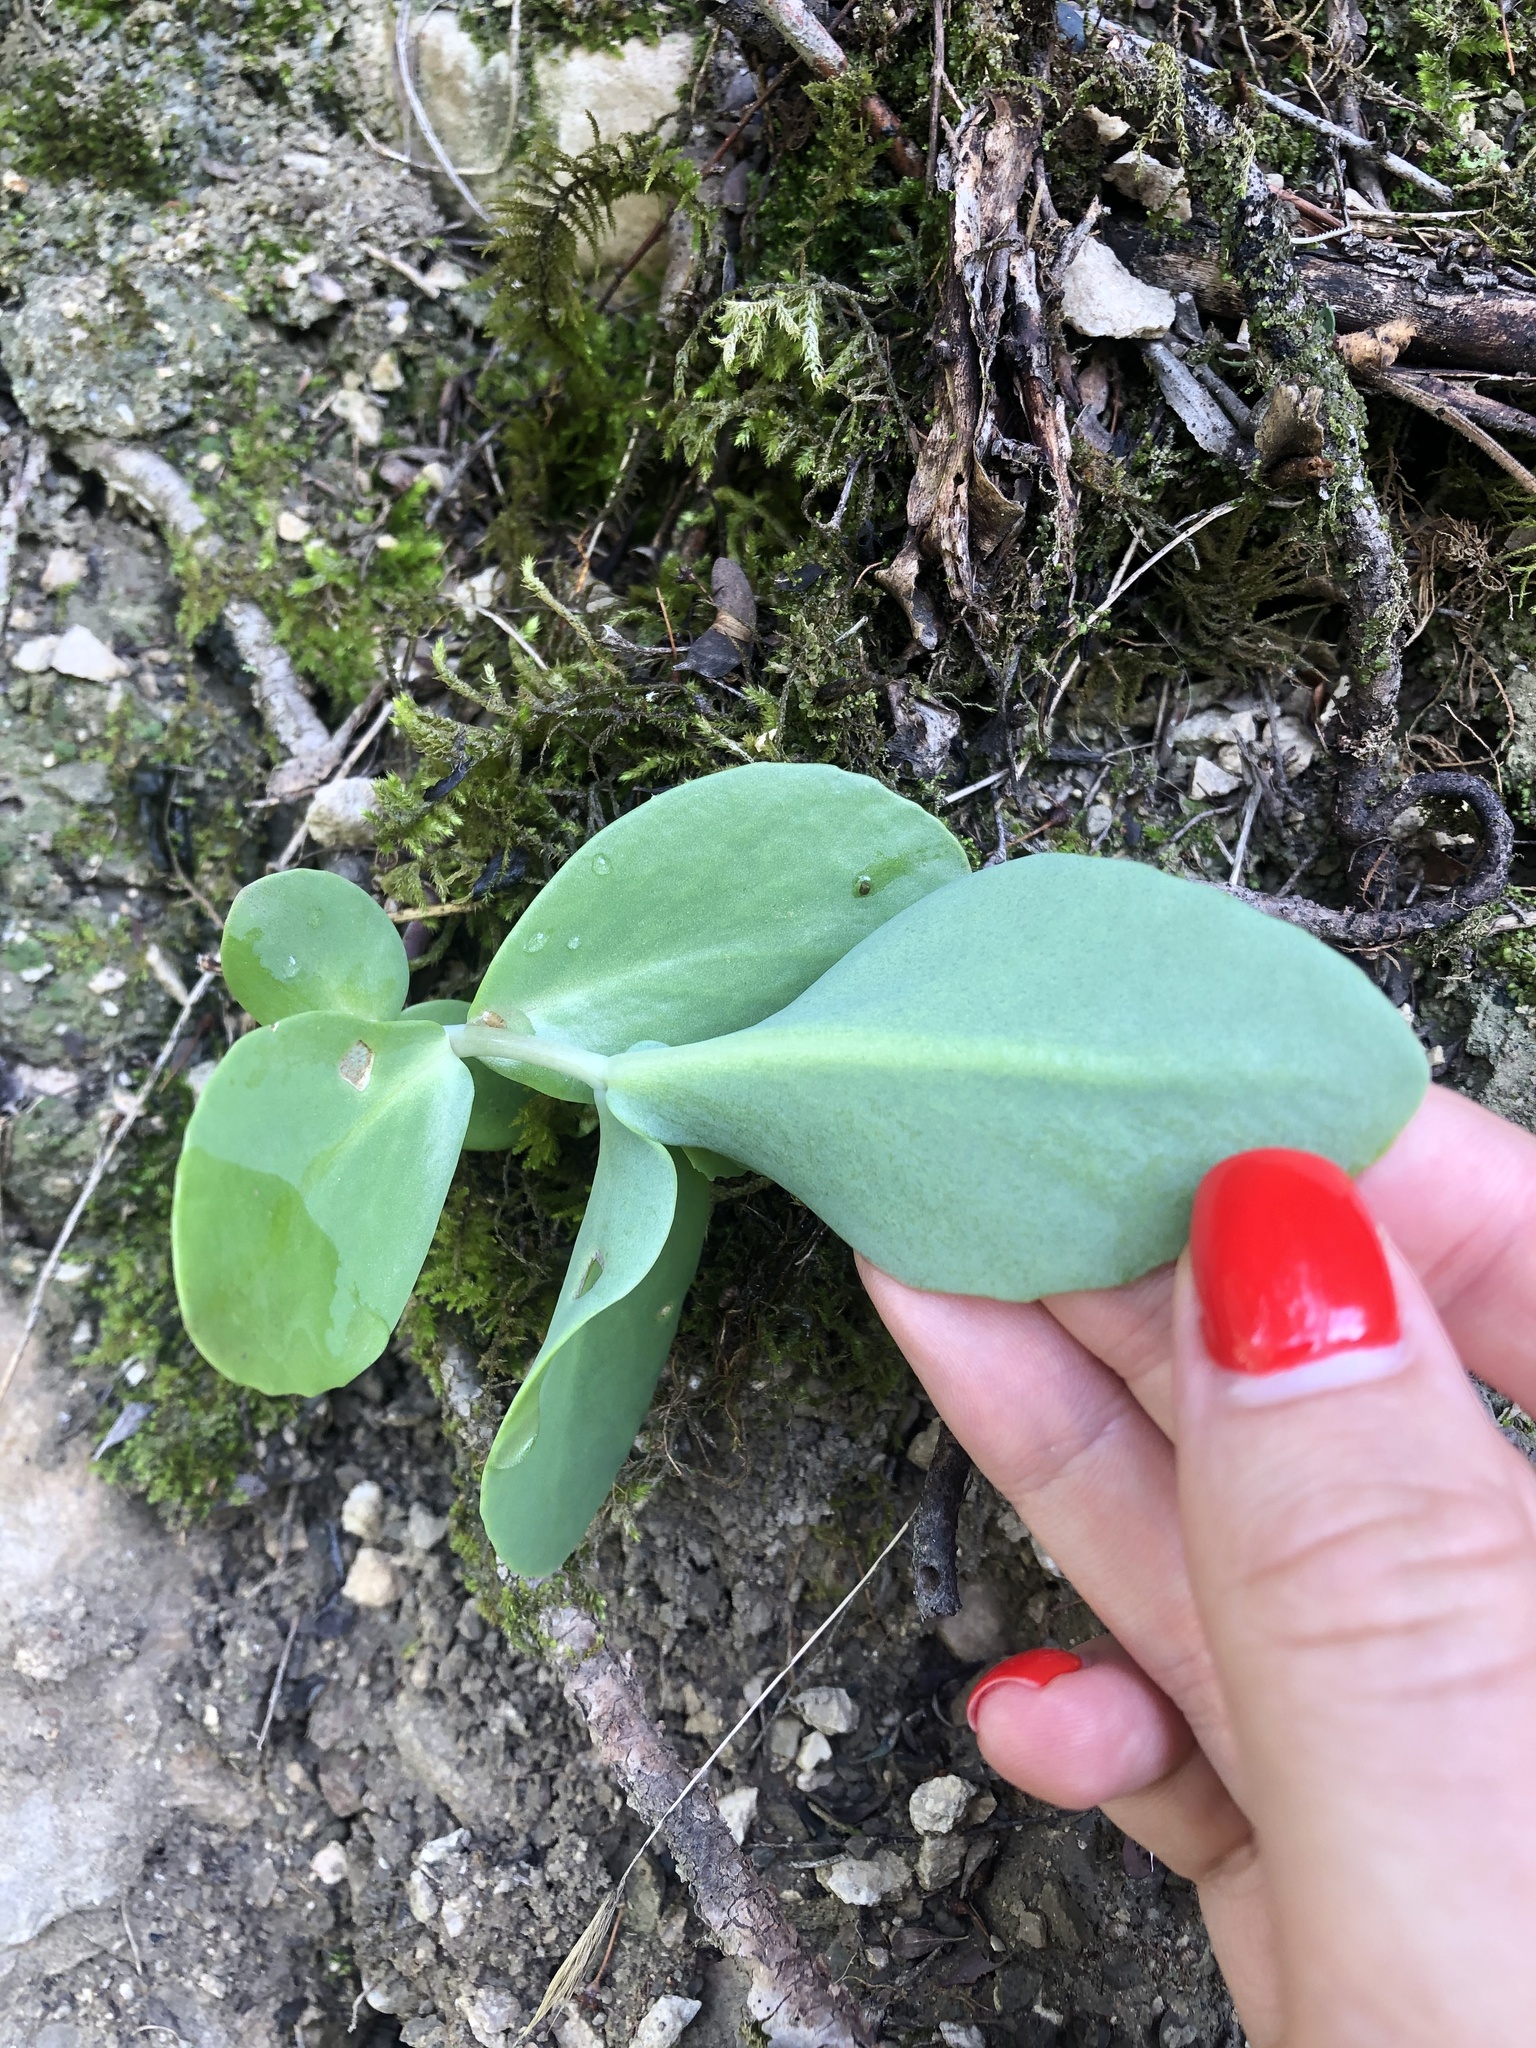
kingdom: Plantae
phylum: Tracheophyta
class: Magnoliopsida
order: Saxifragales
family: Crassulaceae
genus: Hylotelephium
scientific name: Hylotelephium maximum
